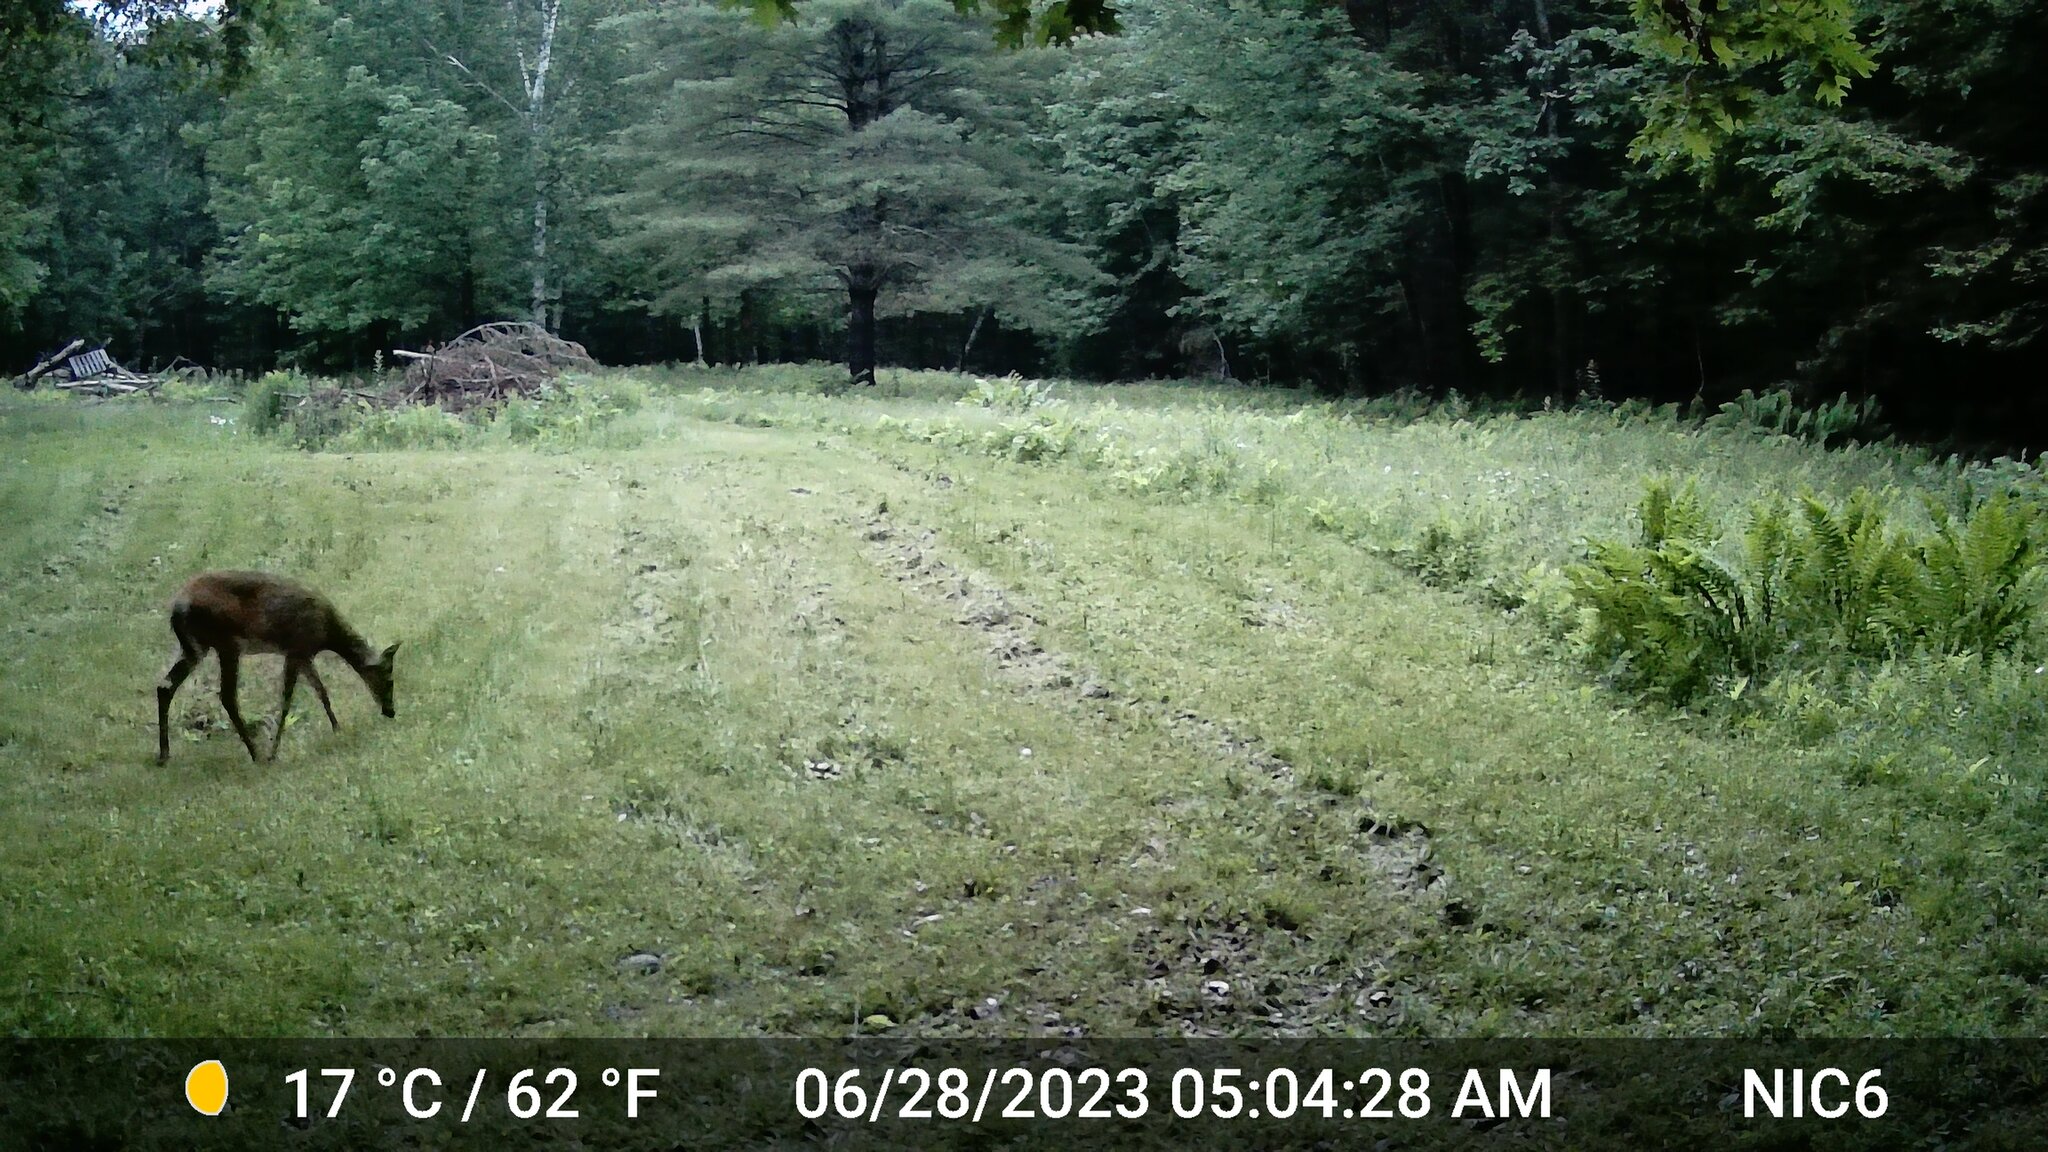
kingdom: Animalia
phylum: Chordata
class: Mammalia
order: Artiodactyla
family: Cervidae
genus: Odocoileus
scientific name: Odocoileus virginianus
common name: White-tailed deer
